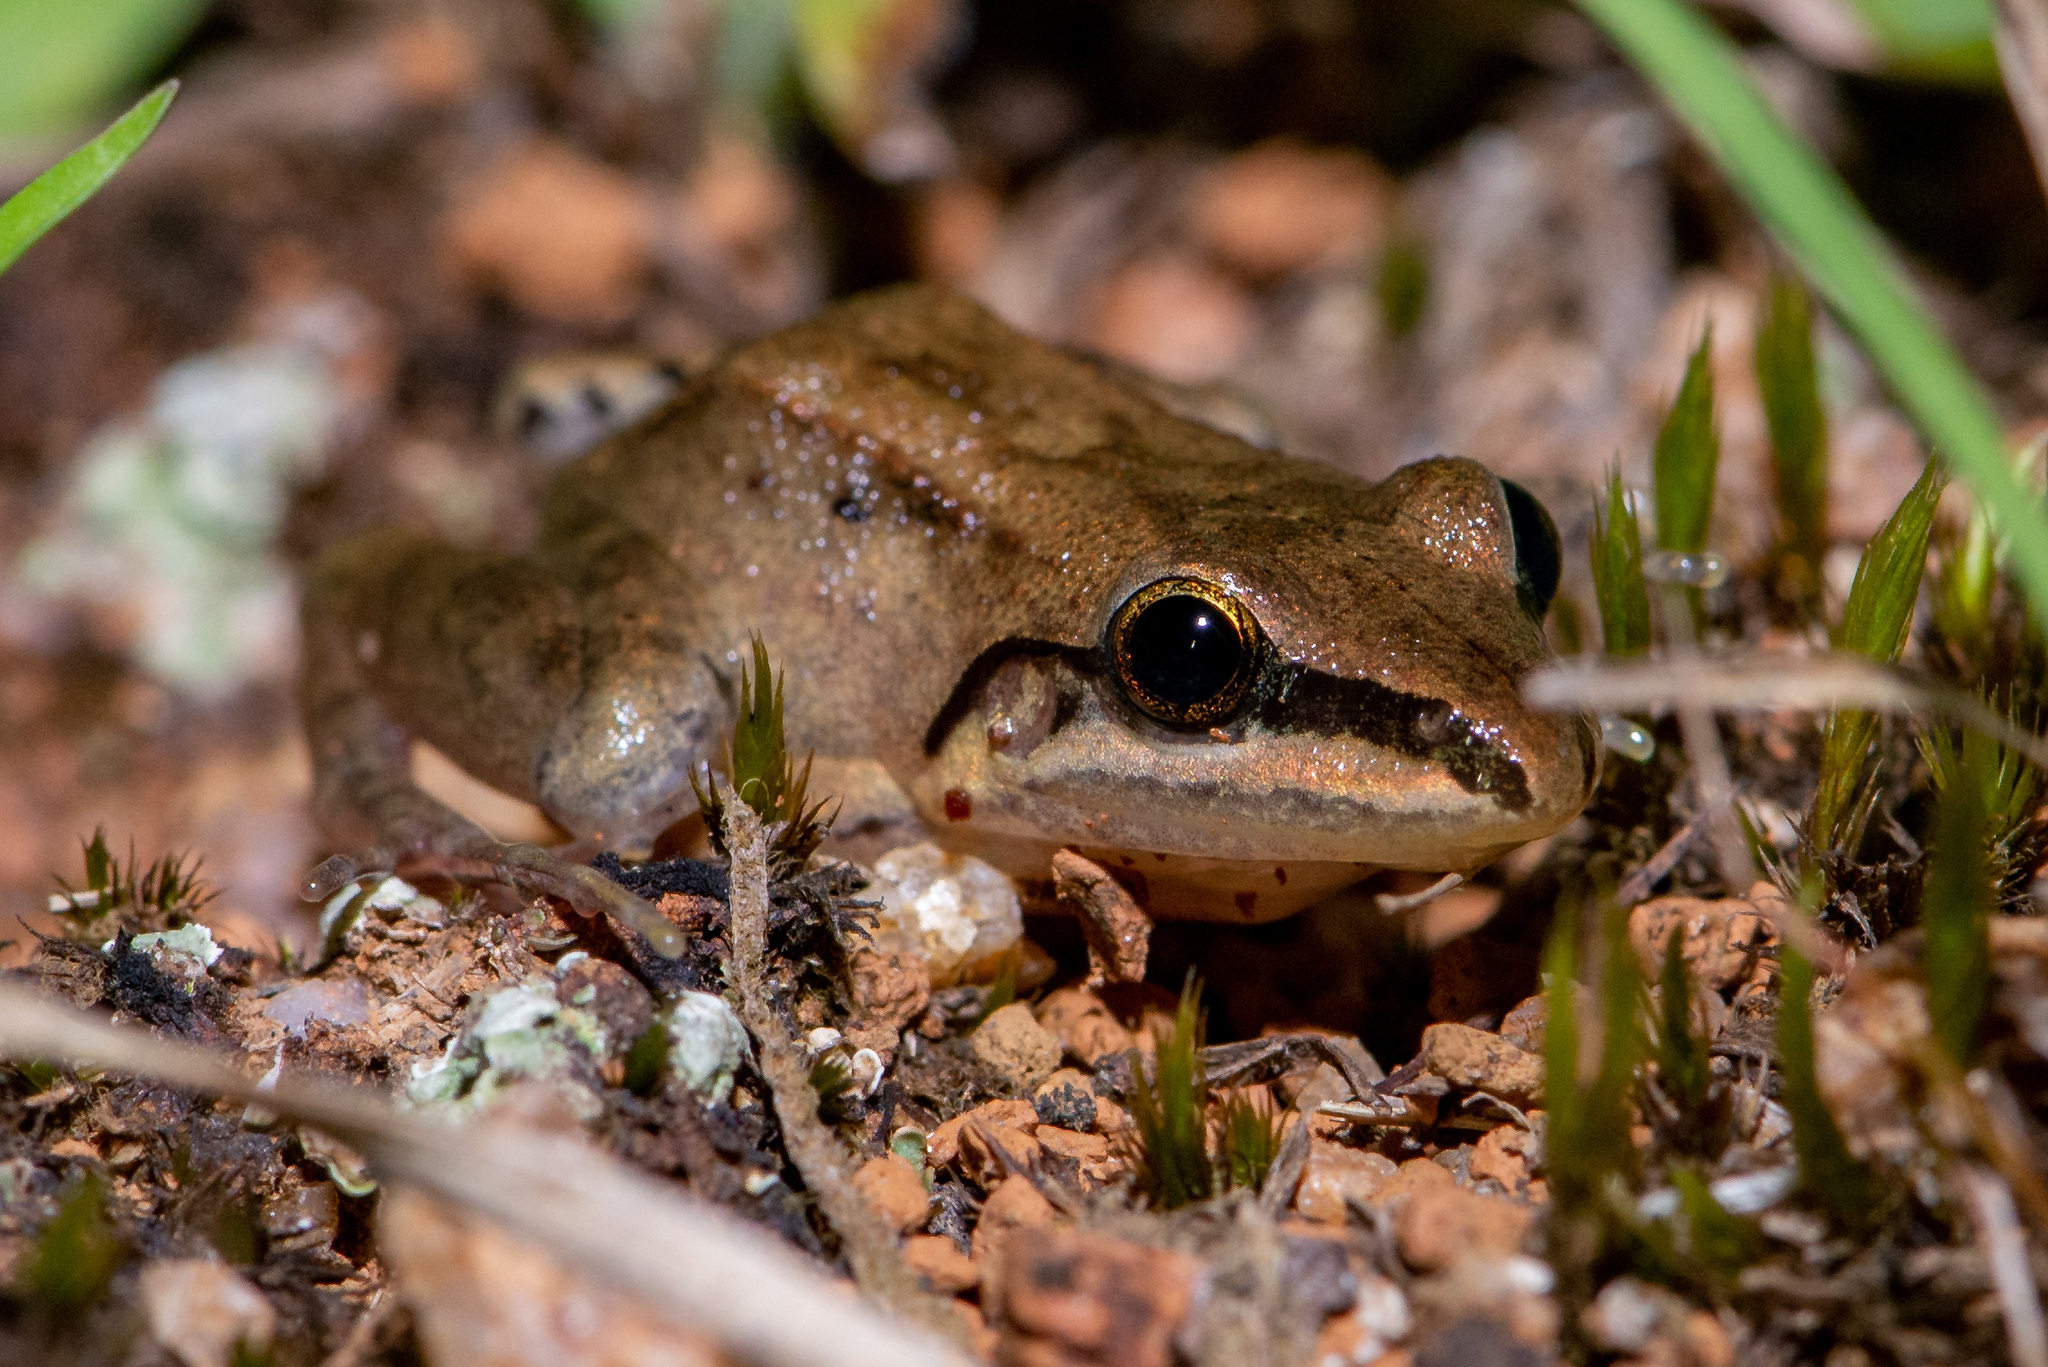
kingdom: Animalia
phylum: Chordata
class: Amphibia
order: Anura
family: Leptodactylidae
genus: Leptodactylus
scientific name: Leptodactylus notoaktites
